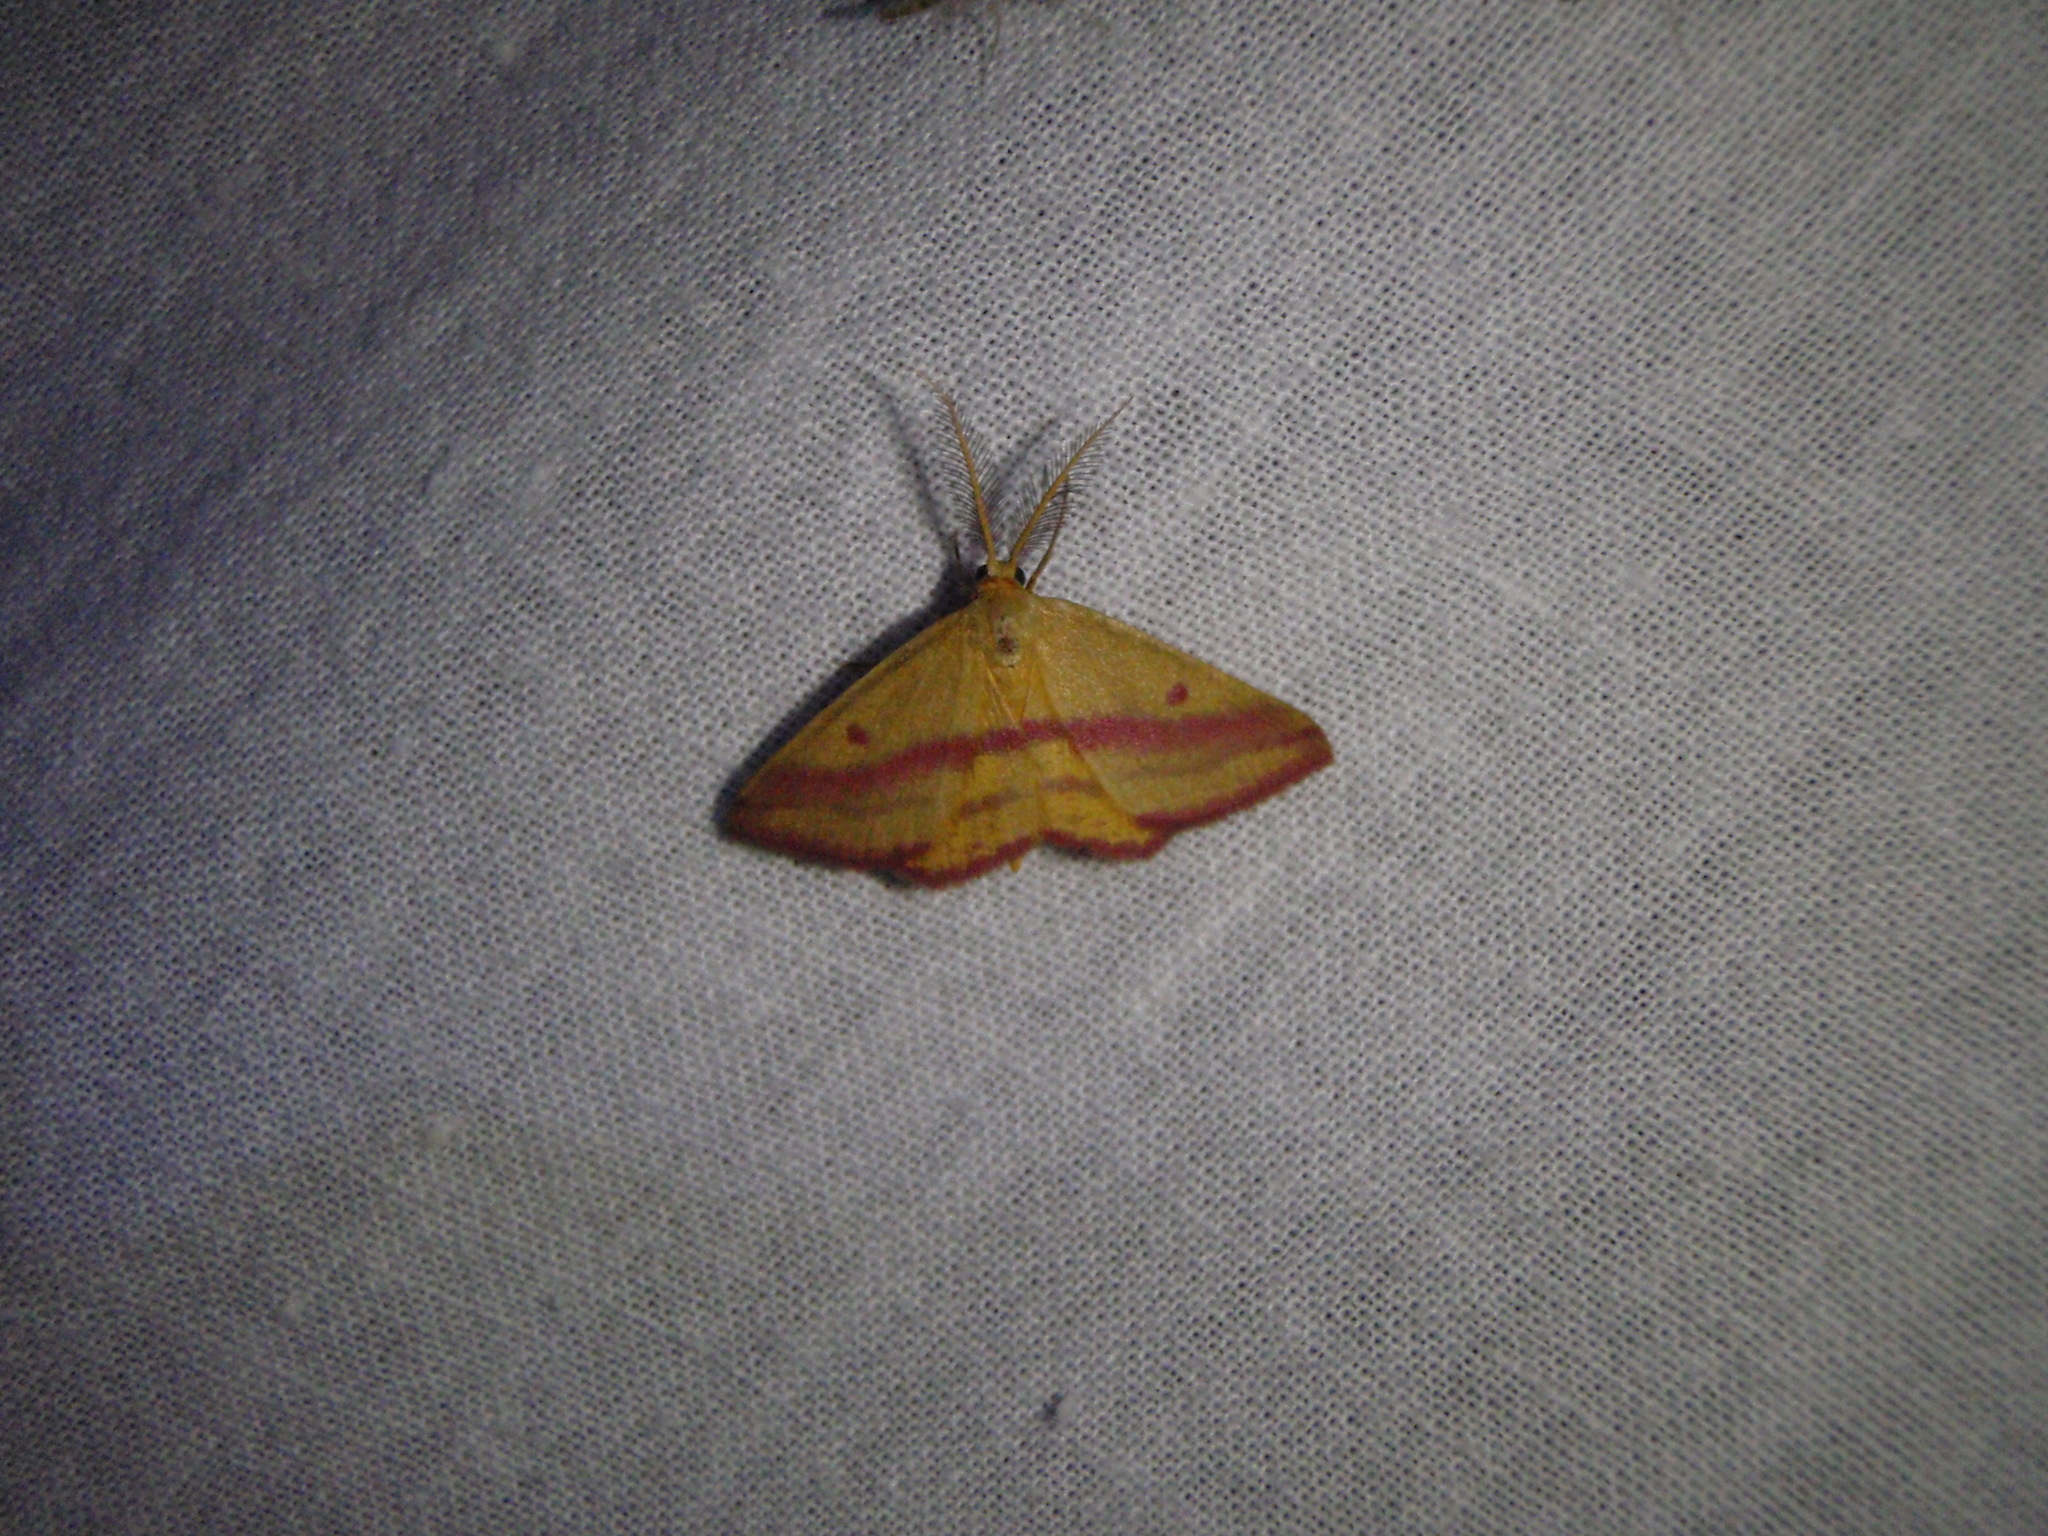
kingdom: Animalia
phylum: Arthropoda
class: Insecta
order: Lepidoptera
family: Geometridae
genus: Haematopis
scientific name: Haematopis grataria
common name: Chickweed geometer
